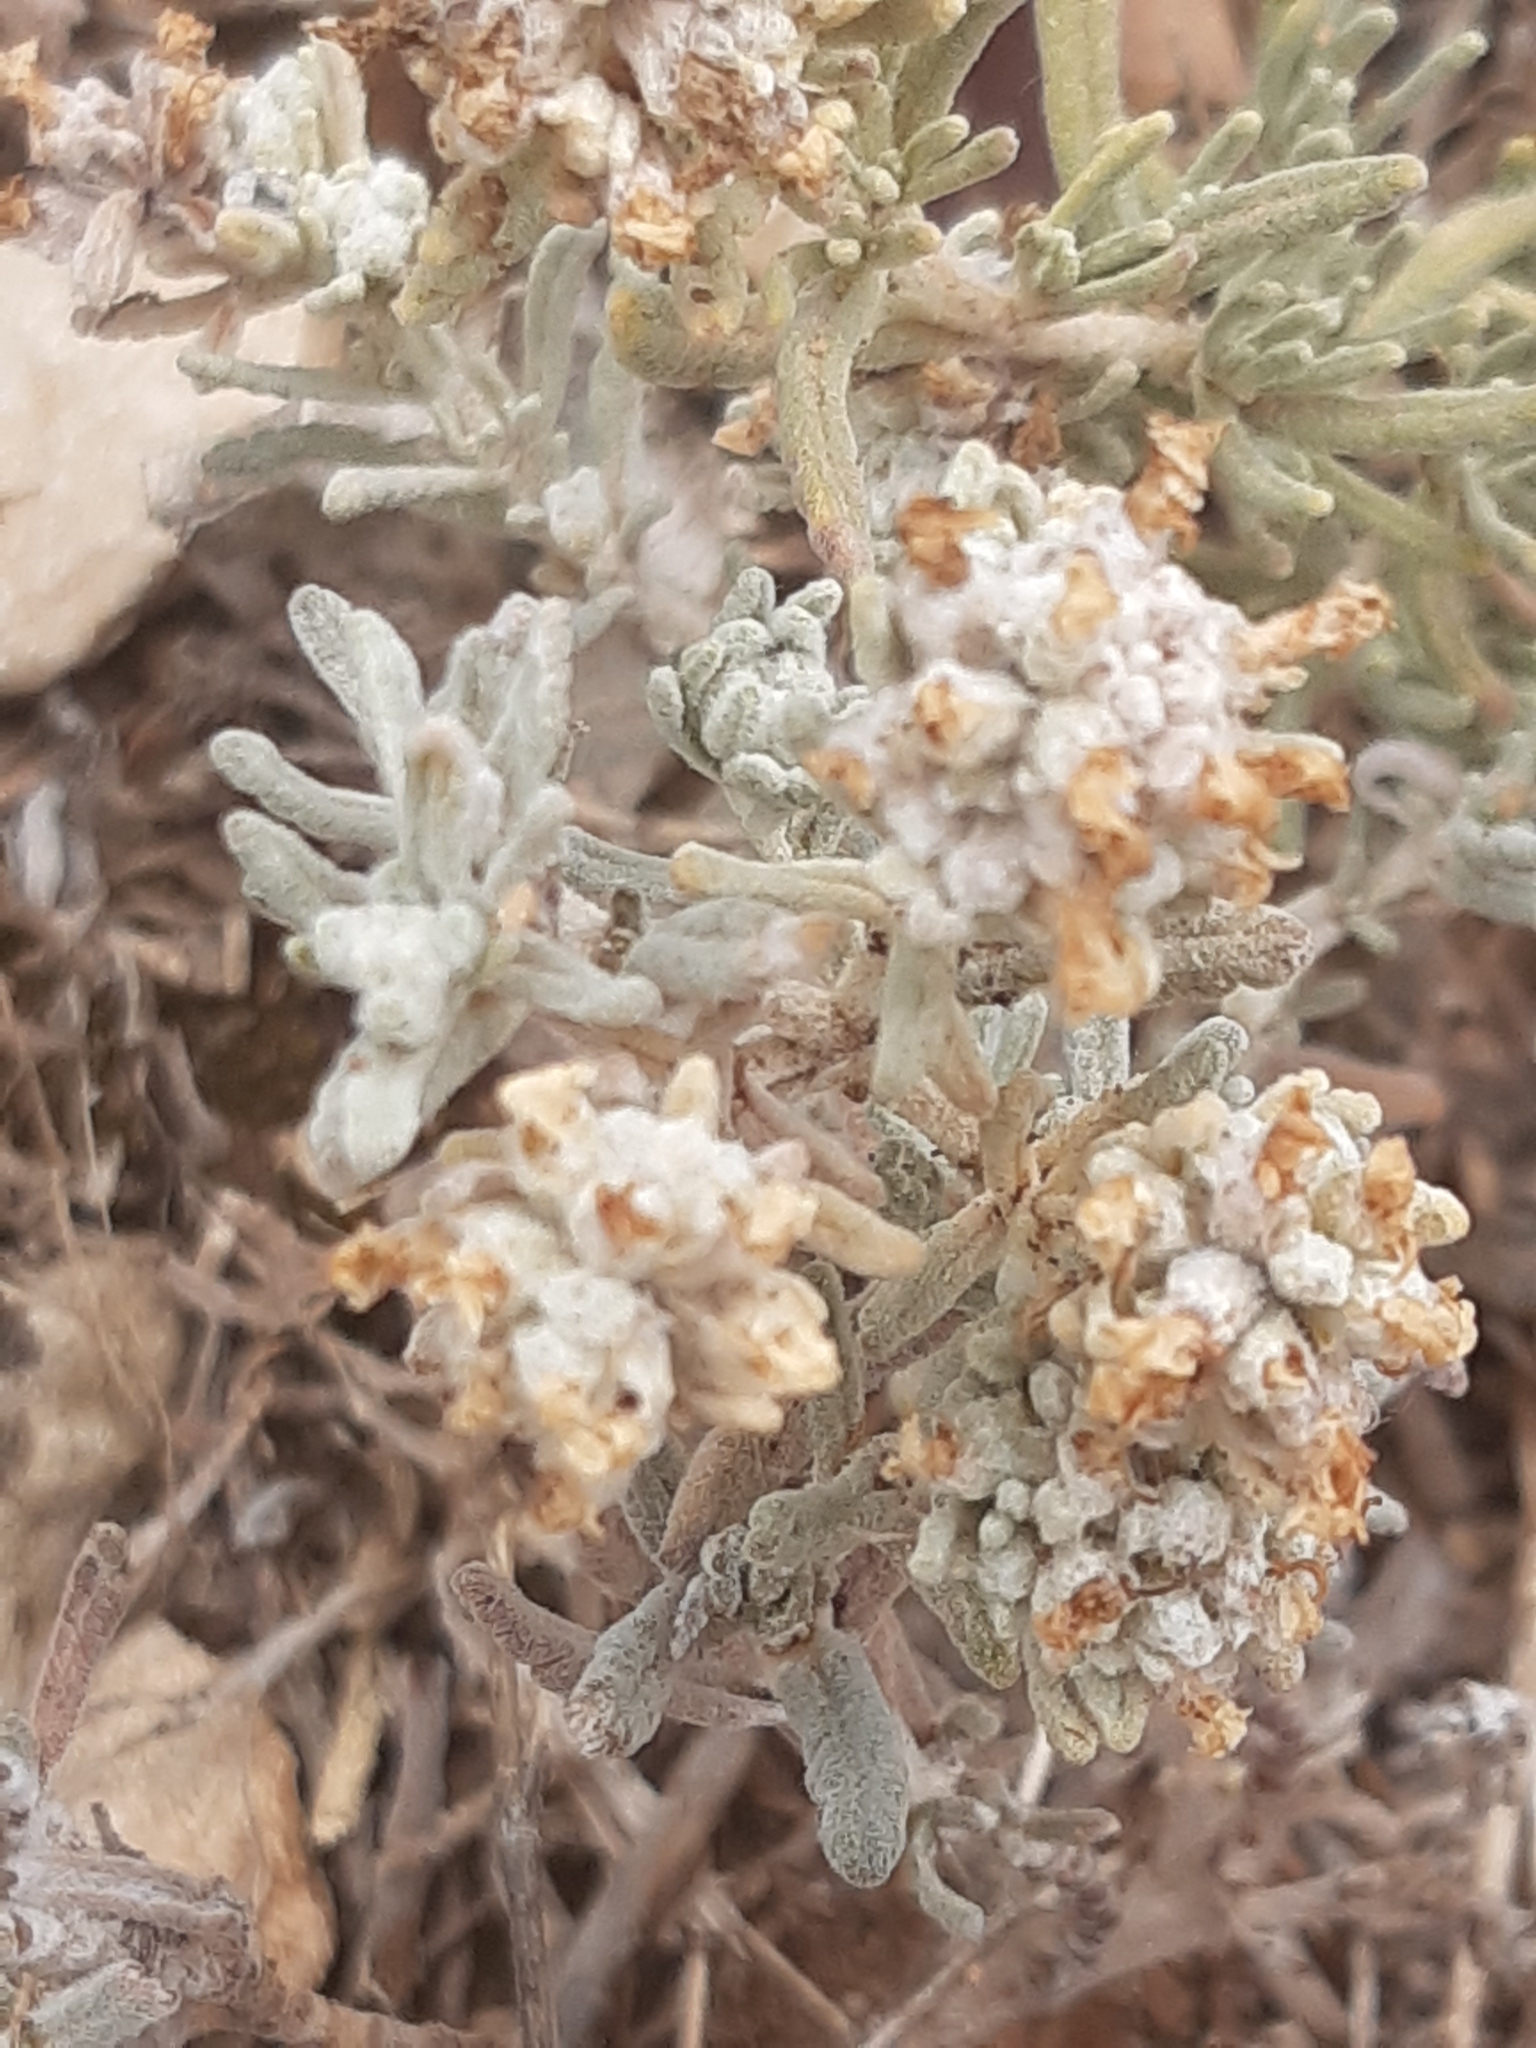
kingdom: Plantae
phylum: Tracheophyta
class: Magnoliopsida
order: Lamiales
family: Lamiaceae
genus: Teucrium
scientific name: Teucrium capitatum
